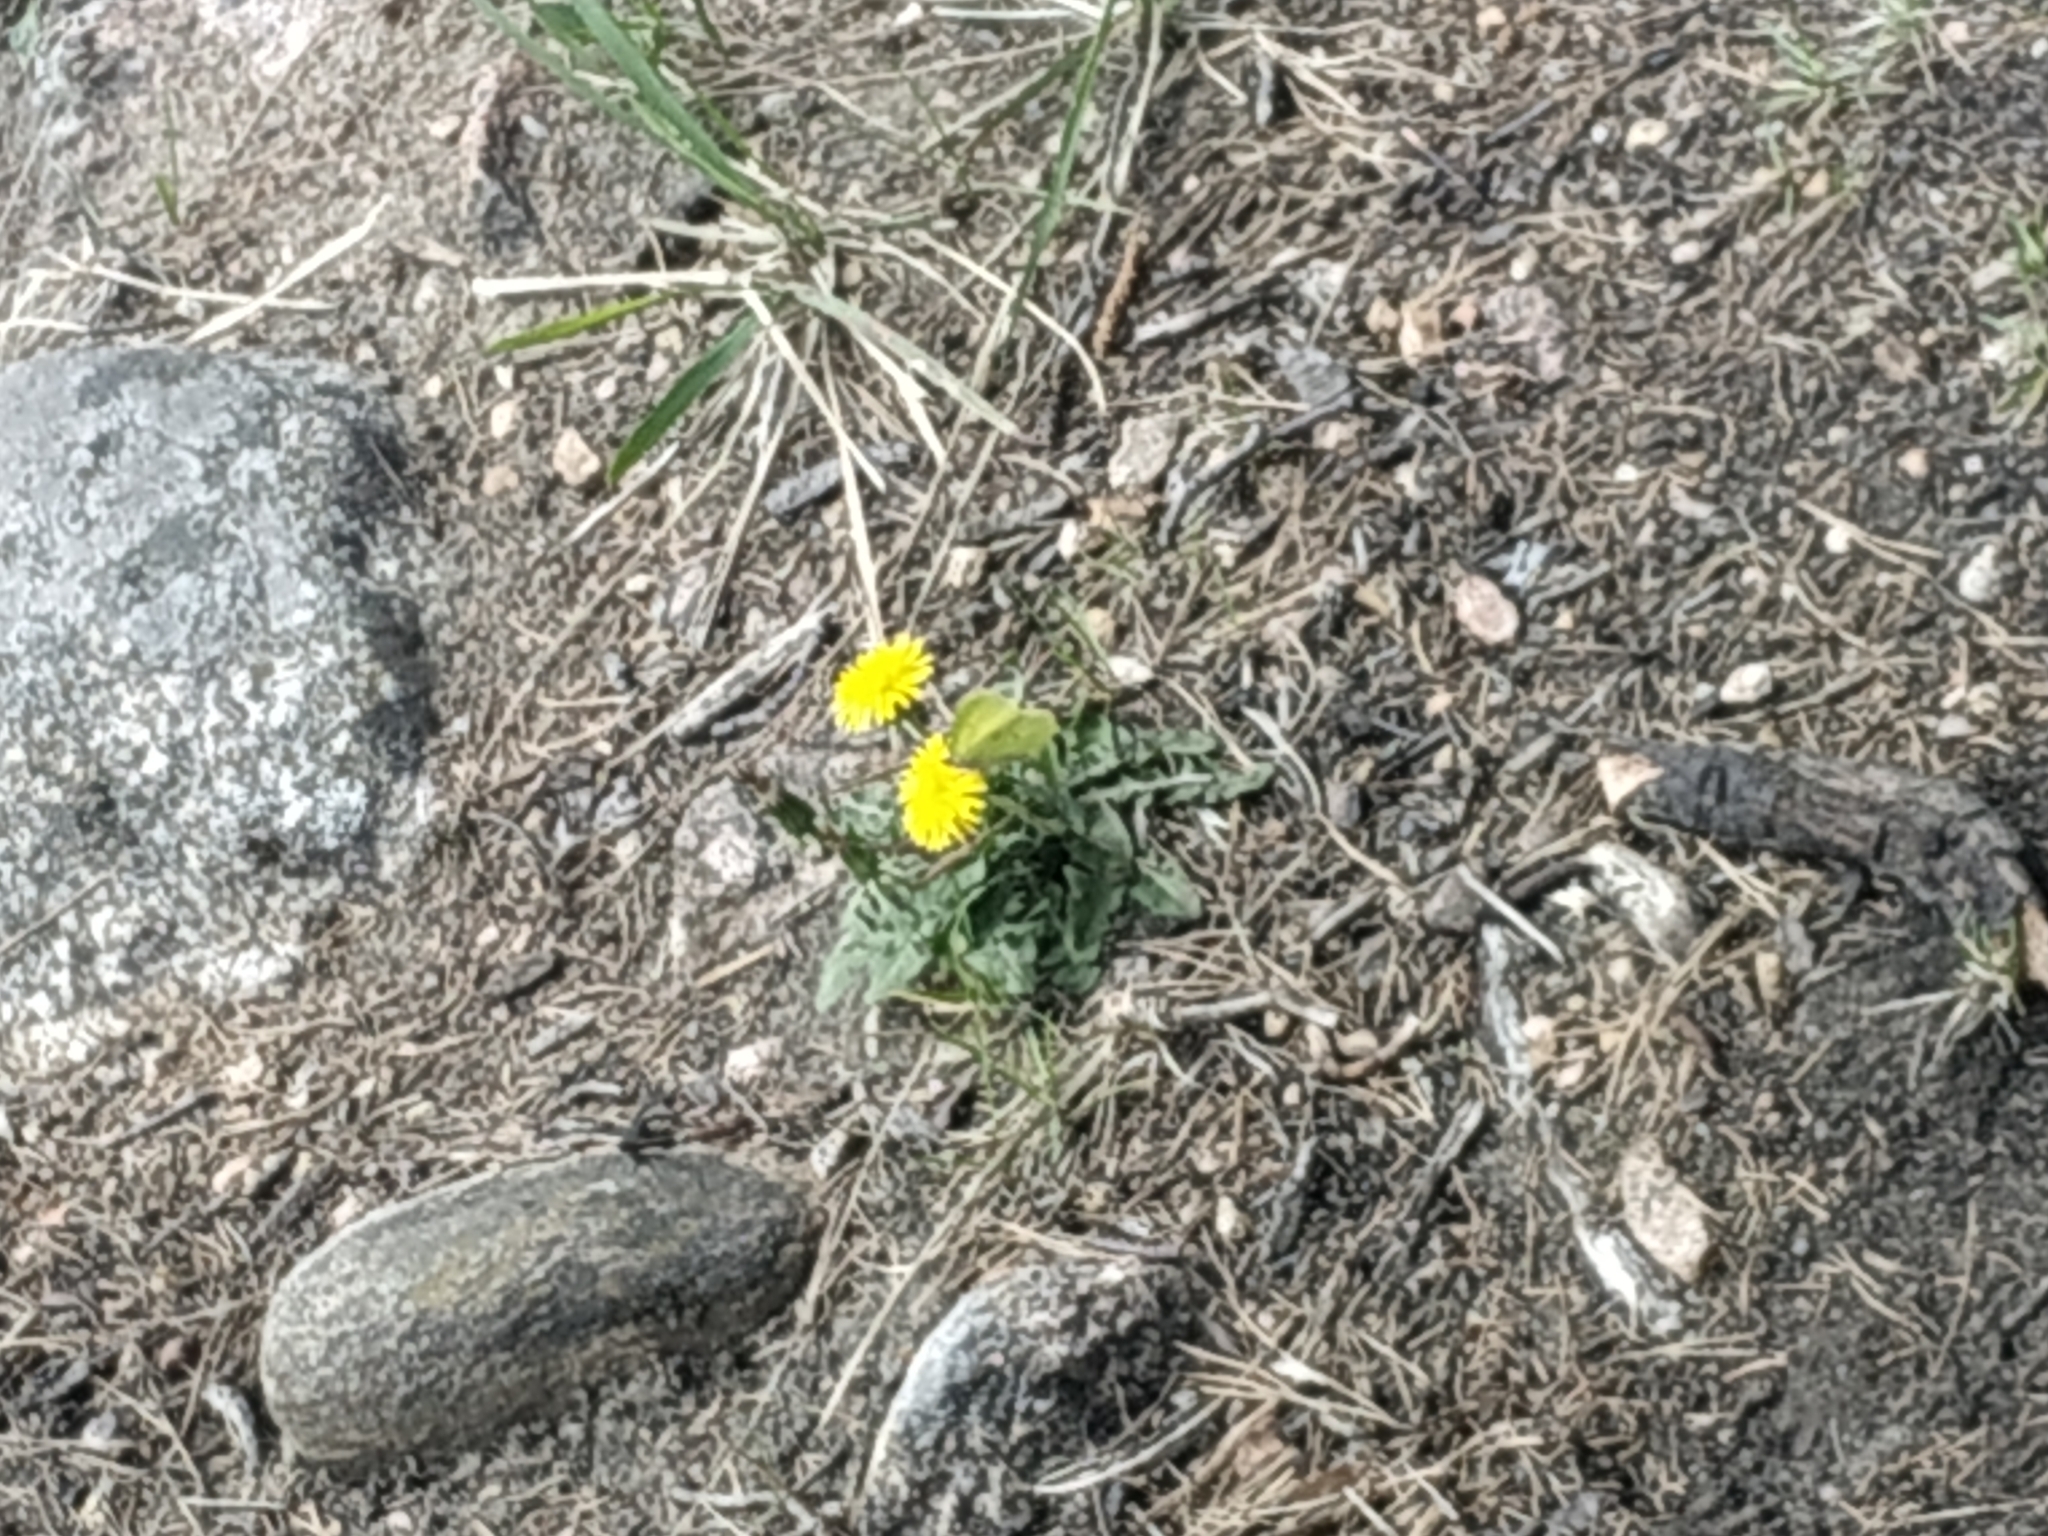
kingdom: Animalia
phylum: Arthropoda
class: Insecta
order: Lepidoptera
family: Pieridae
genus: Gonepteryx
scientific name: Gonepteryx rhamni
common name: Brimstone
